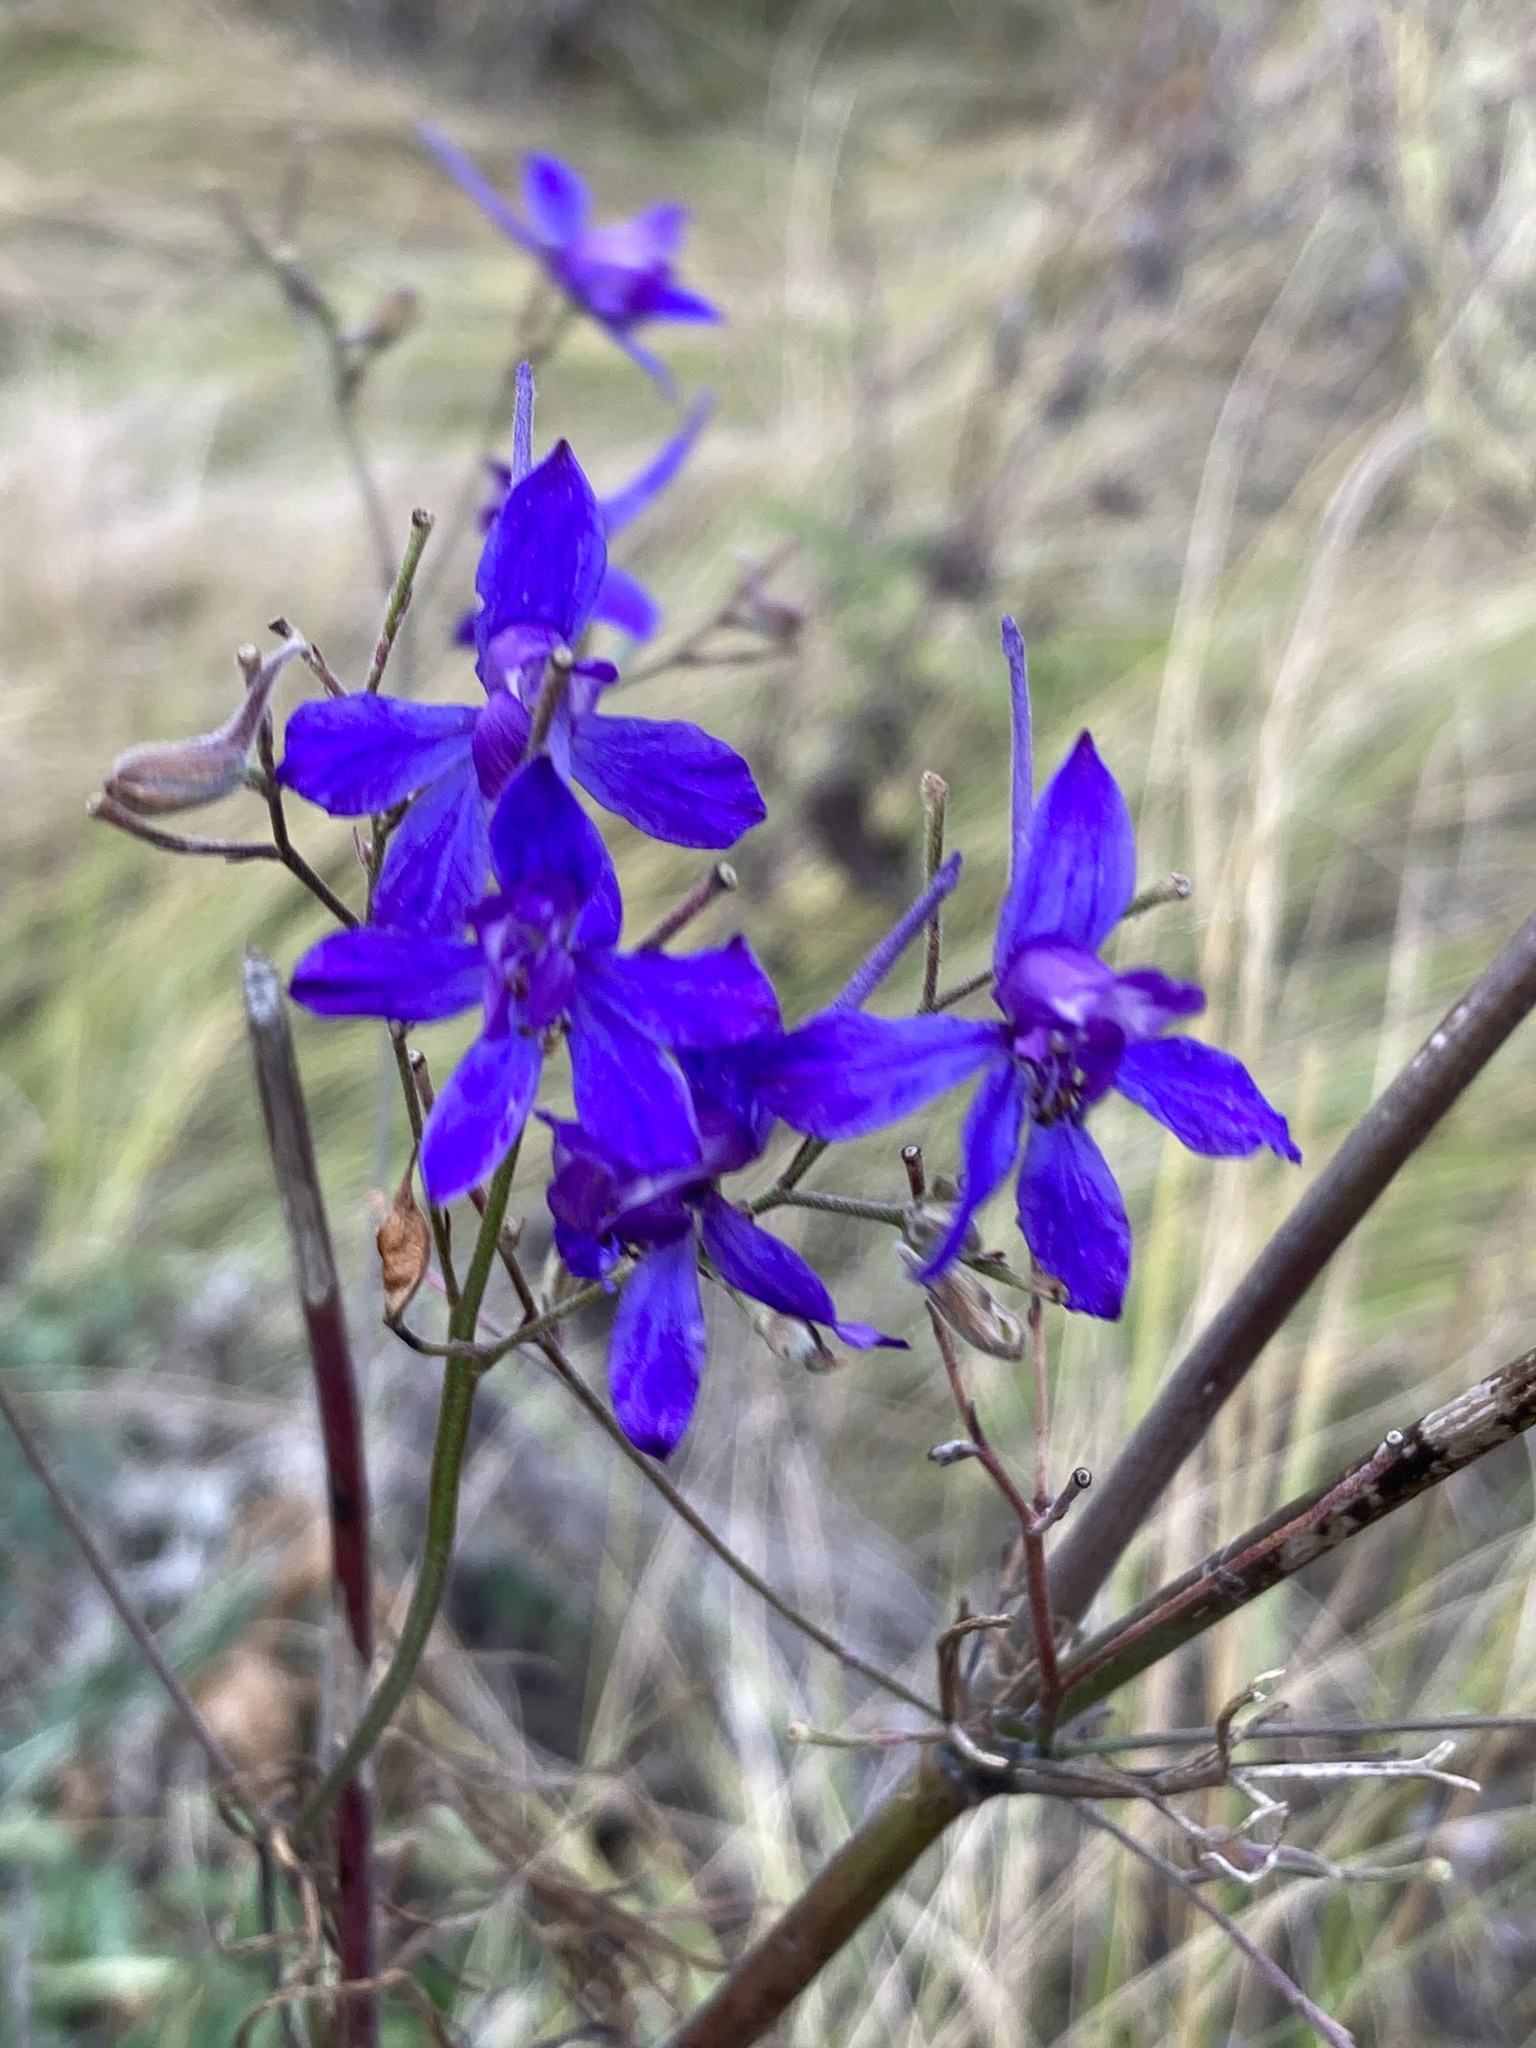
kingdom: Plantae
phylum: Tracheophyta
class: Magnoliopsida
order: Ranunculales
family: Ranunculaceae
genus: Delphinium
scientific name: Delphinium consolida
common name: Branching larkspur
